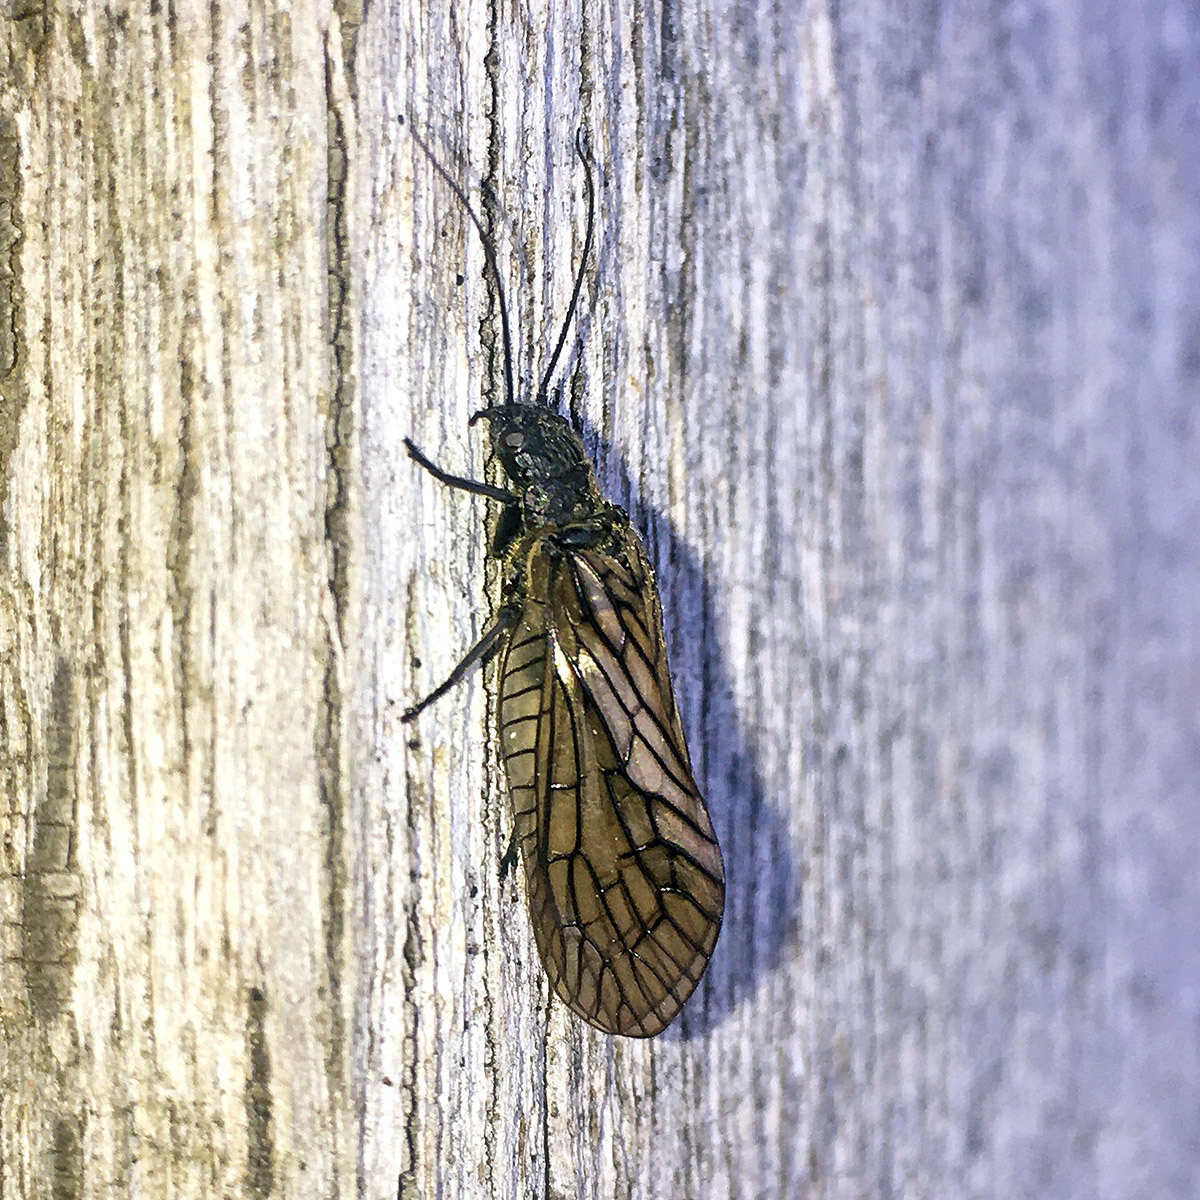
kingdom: Animalia
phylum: Arthropoda
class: Insecta
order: Megaloptera
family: Sialidae
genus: Sialis
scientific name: Sialis
